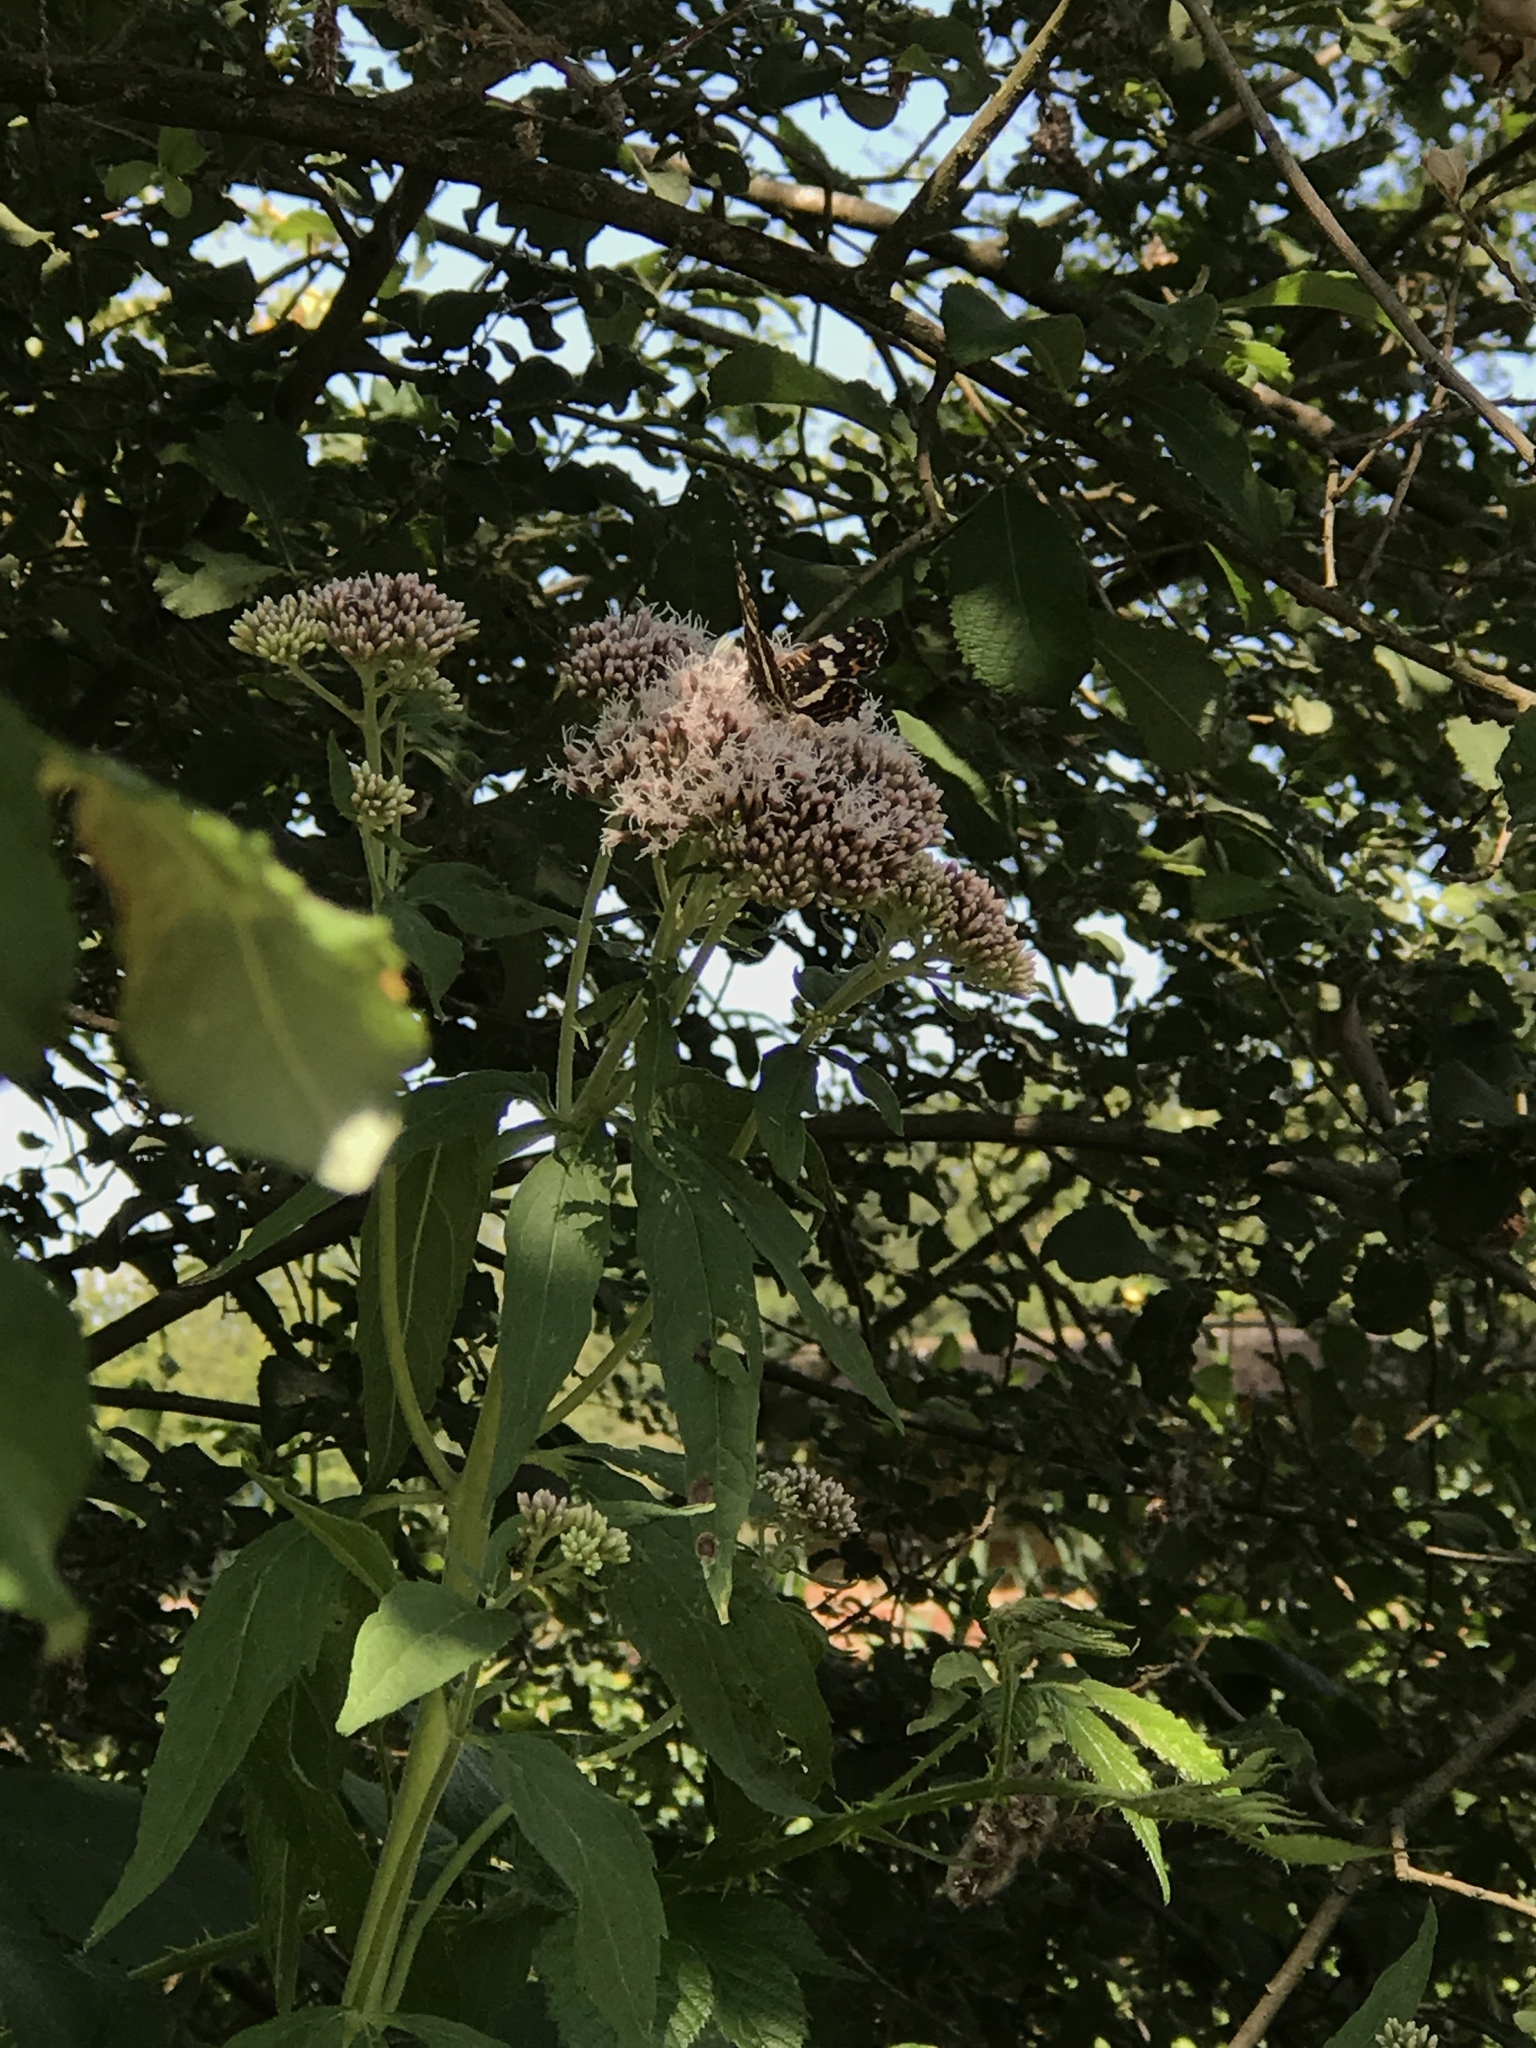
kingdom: Plantae
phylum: Tracheophyta
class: Magnoliopsida
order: Asterales
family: Asteraceae
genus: Eupatorium
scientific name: Eupatorium cannabinum
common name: Hemp-agrimony
